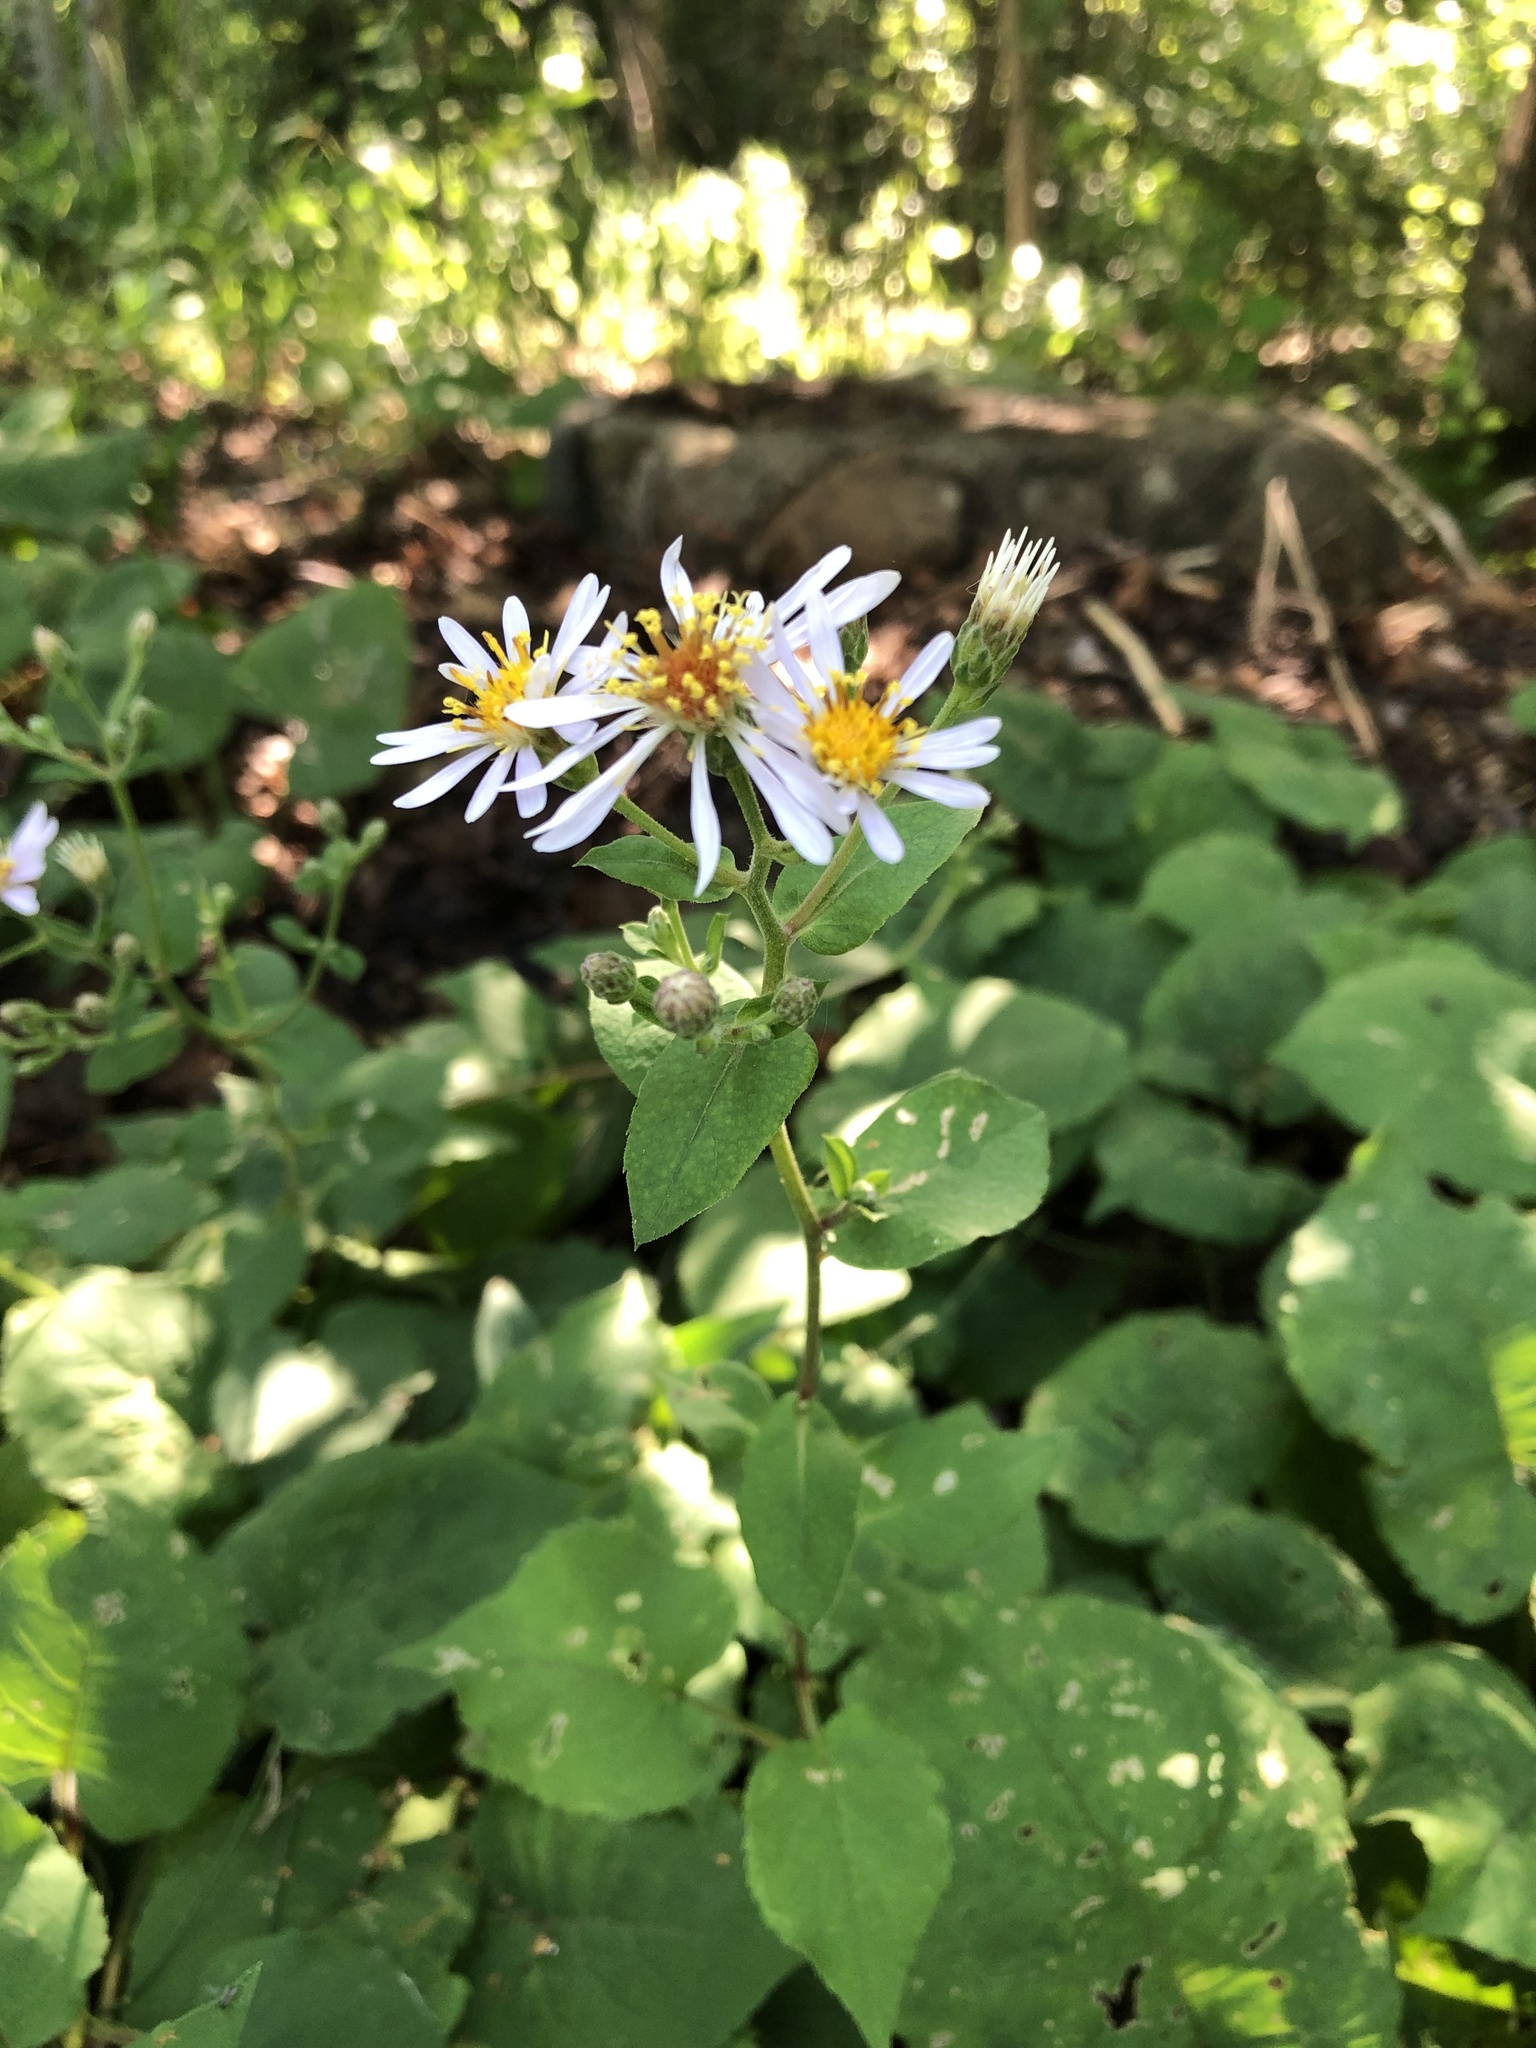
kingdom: Plantae
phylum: Tracheophyta
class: Magnoliopsida
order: Asterales
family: Asteraceae
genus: Eurybia
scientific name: Eurybia macrophylla
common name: Big-leaved aster
